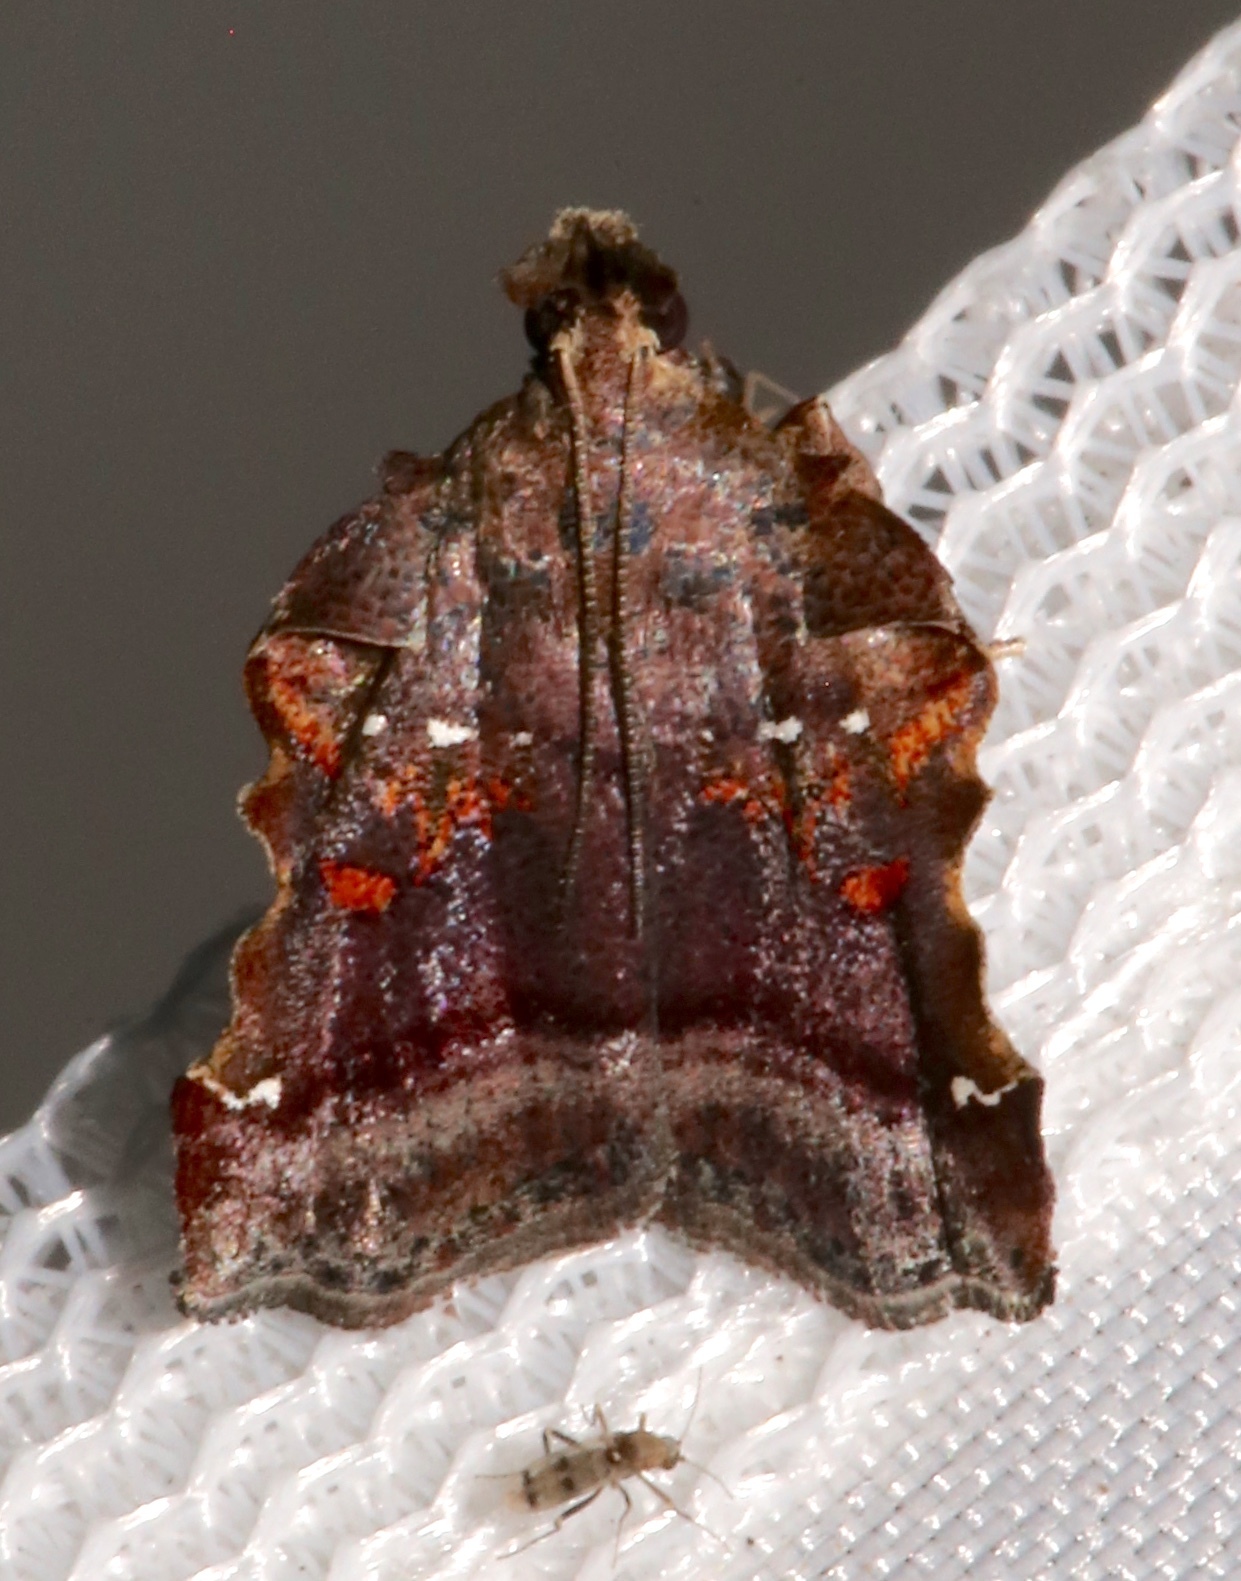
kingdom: Animalia
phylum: Arthropoda
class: Insecta
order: Lepidoptera
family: Pyralidae
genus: Clydonopteron
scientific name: Clydonopteron sacculana
